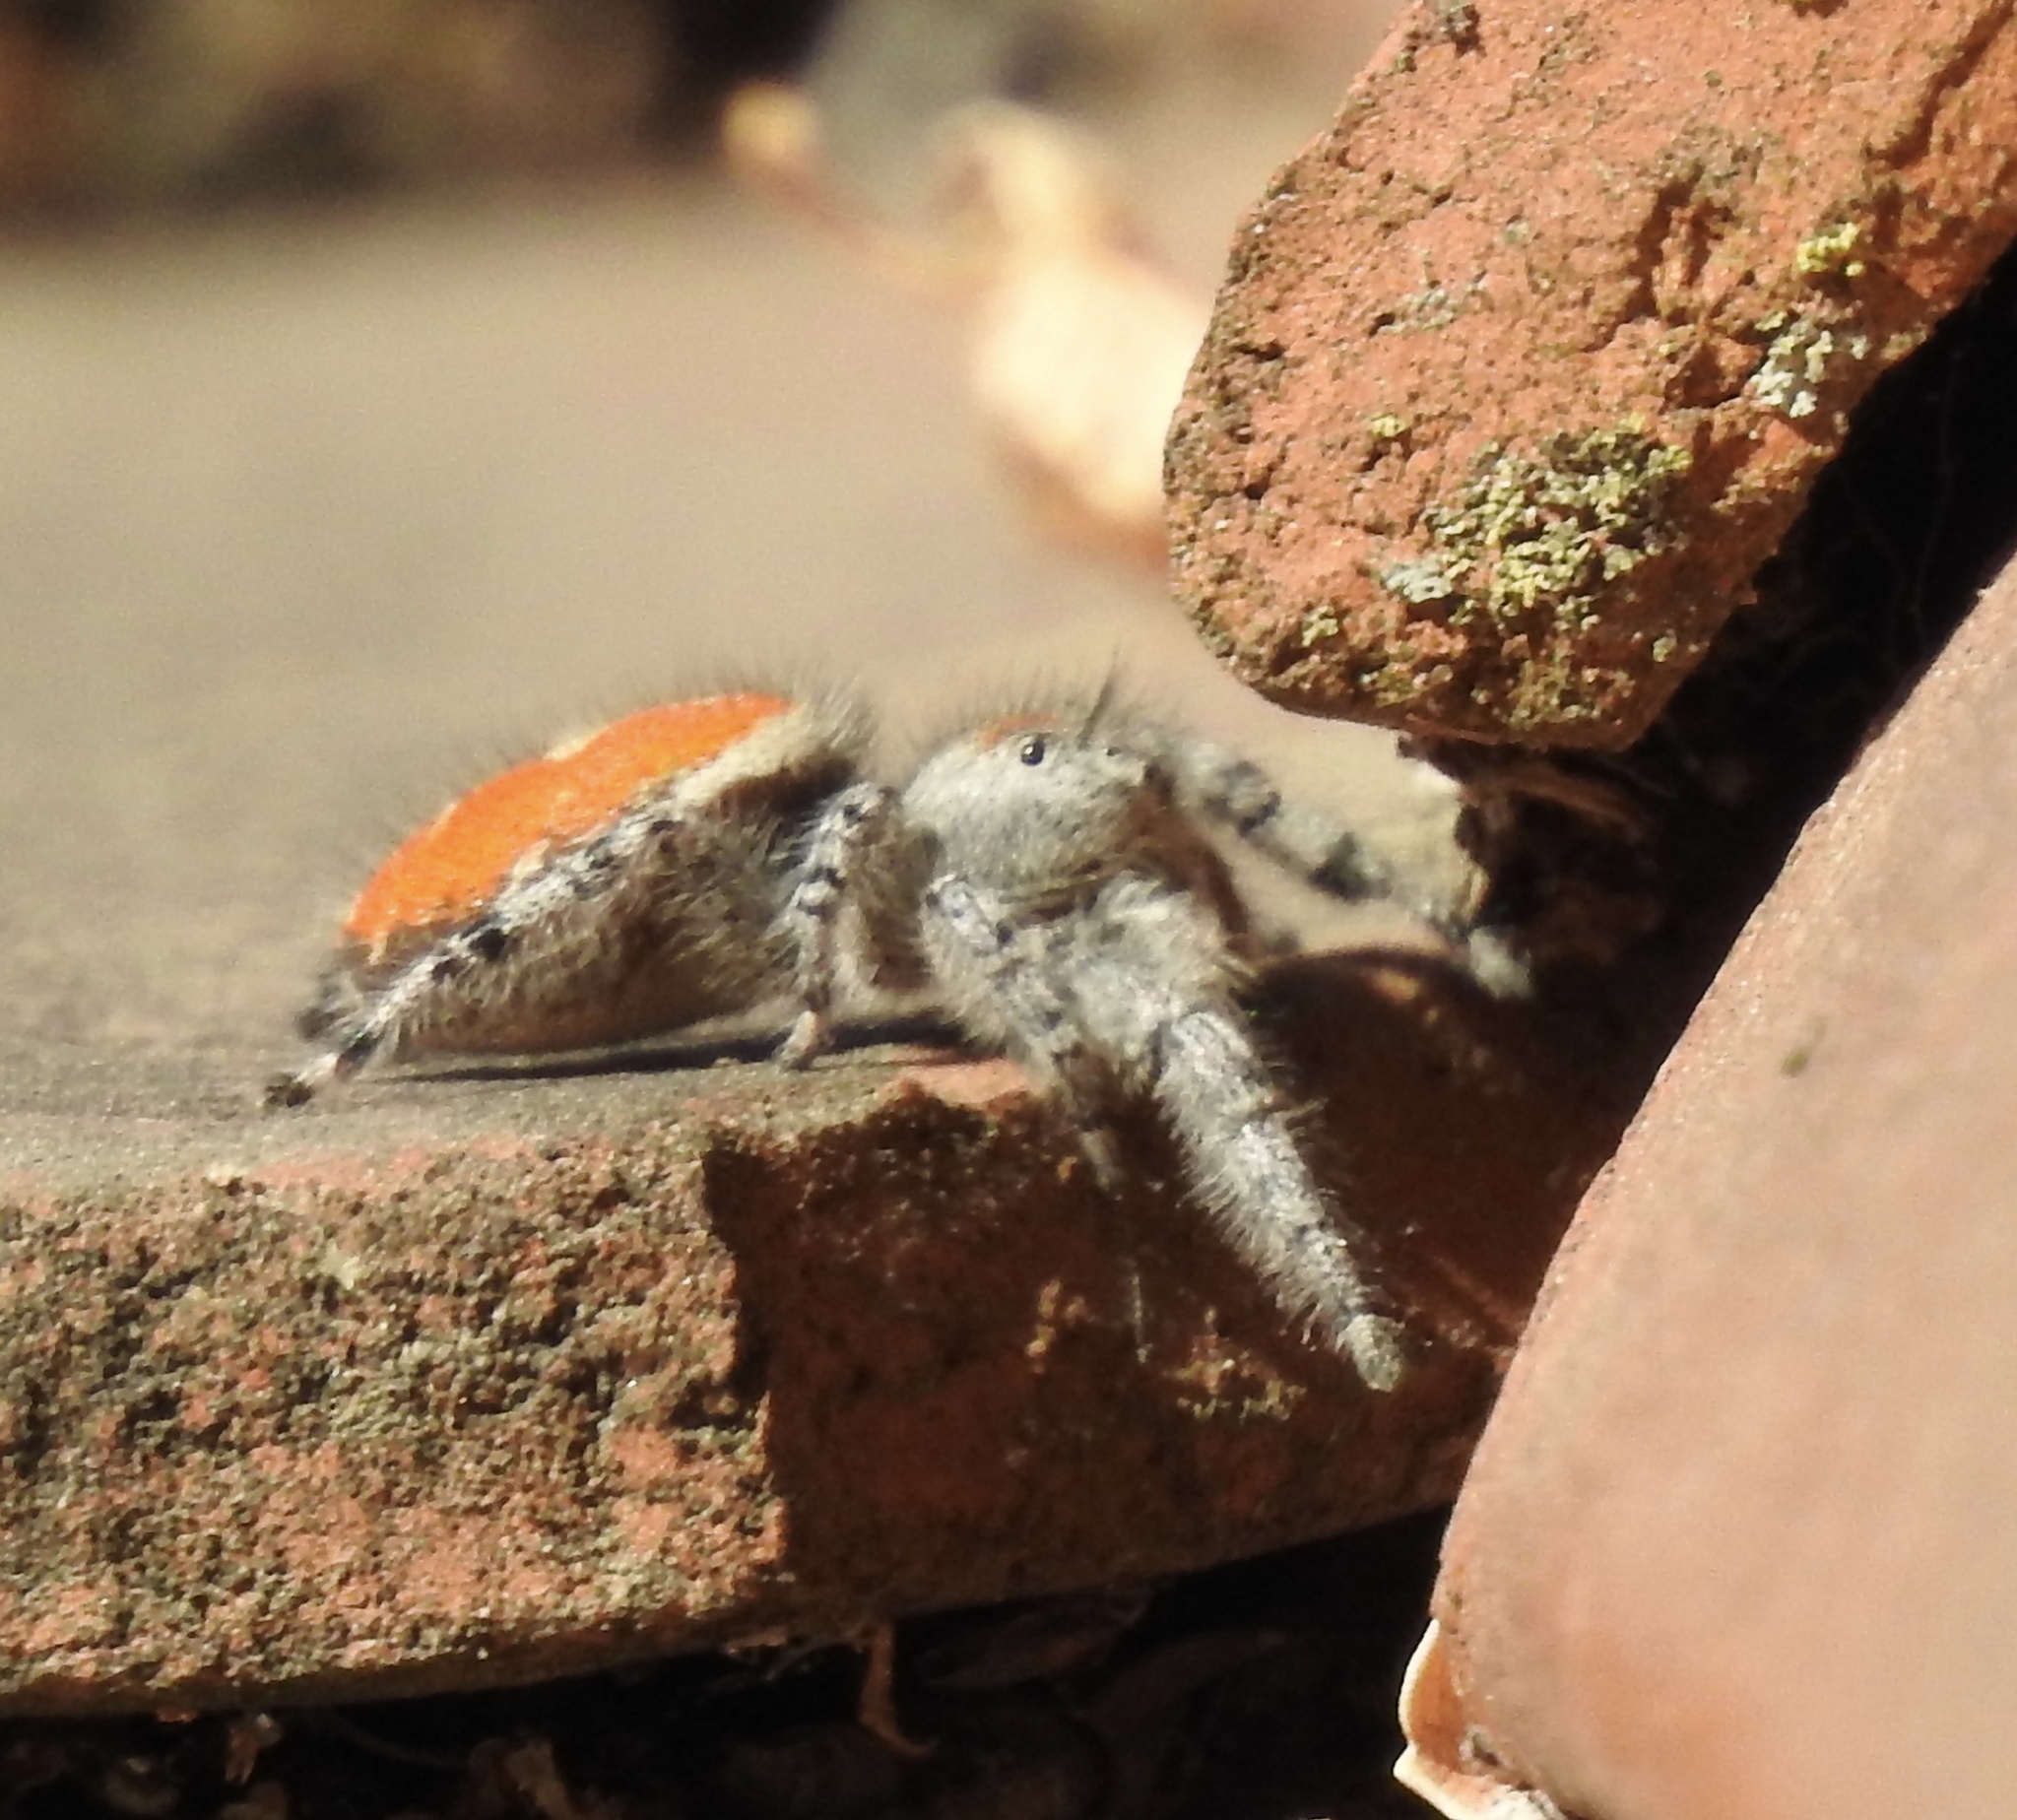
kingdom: Animalia
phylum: Arthropoda
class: Arachnida
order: Araneae
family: Salticidae
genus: Phidippus
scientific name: Phidippus adumbratus
